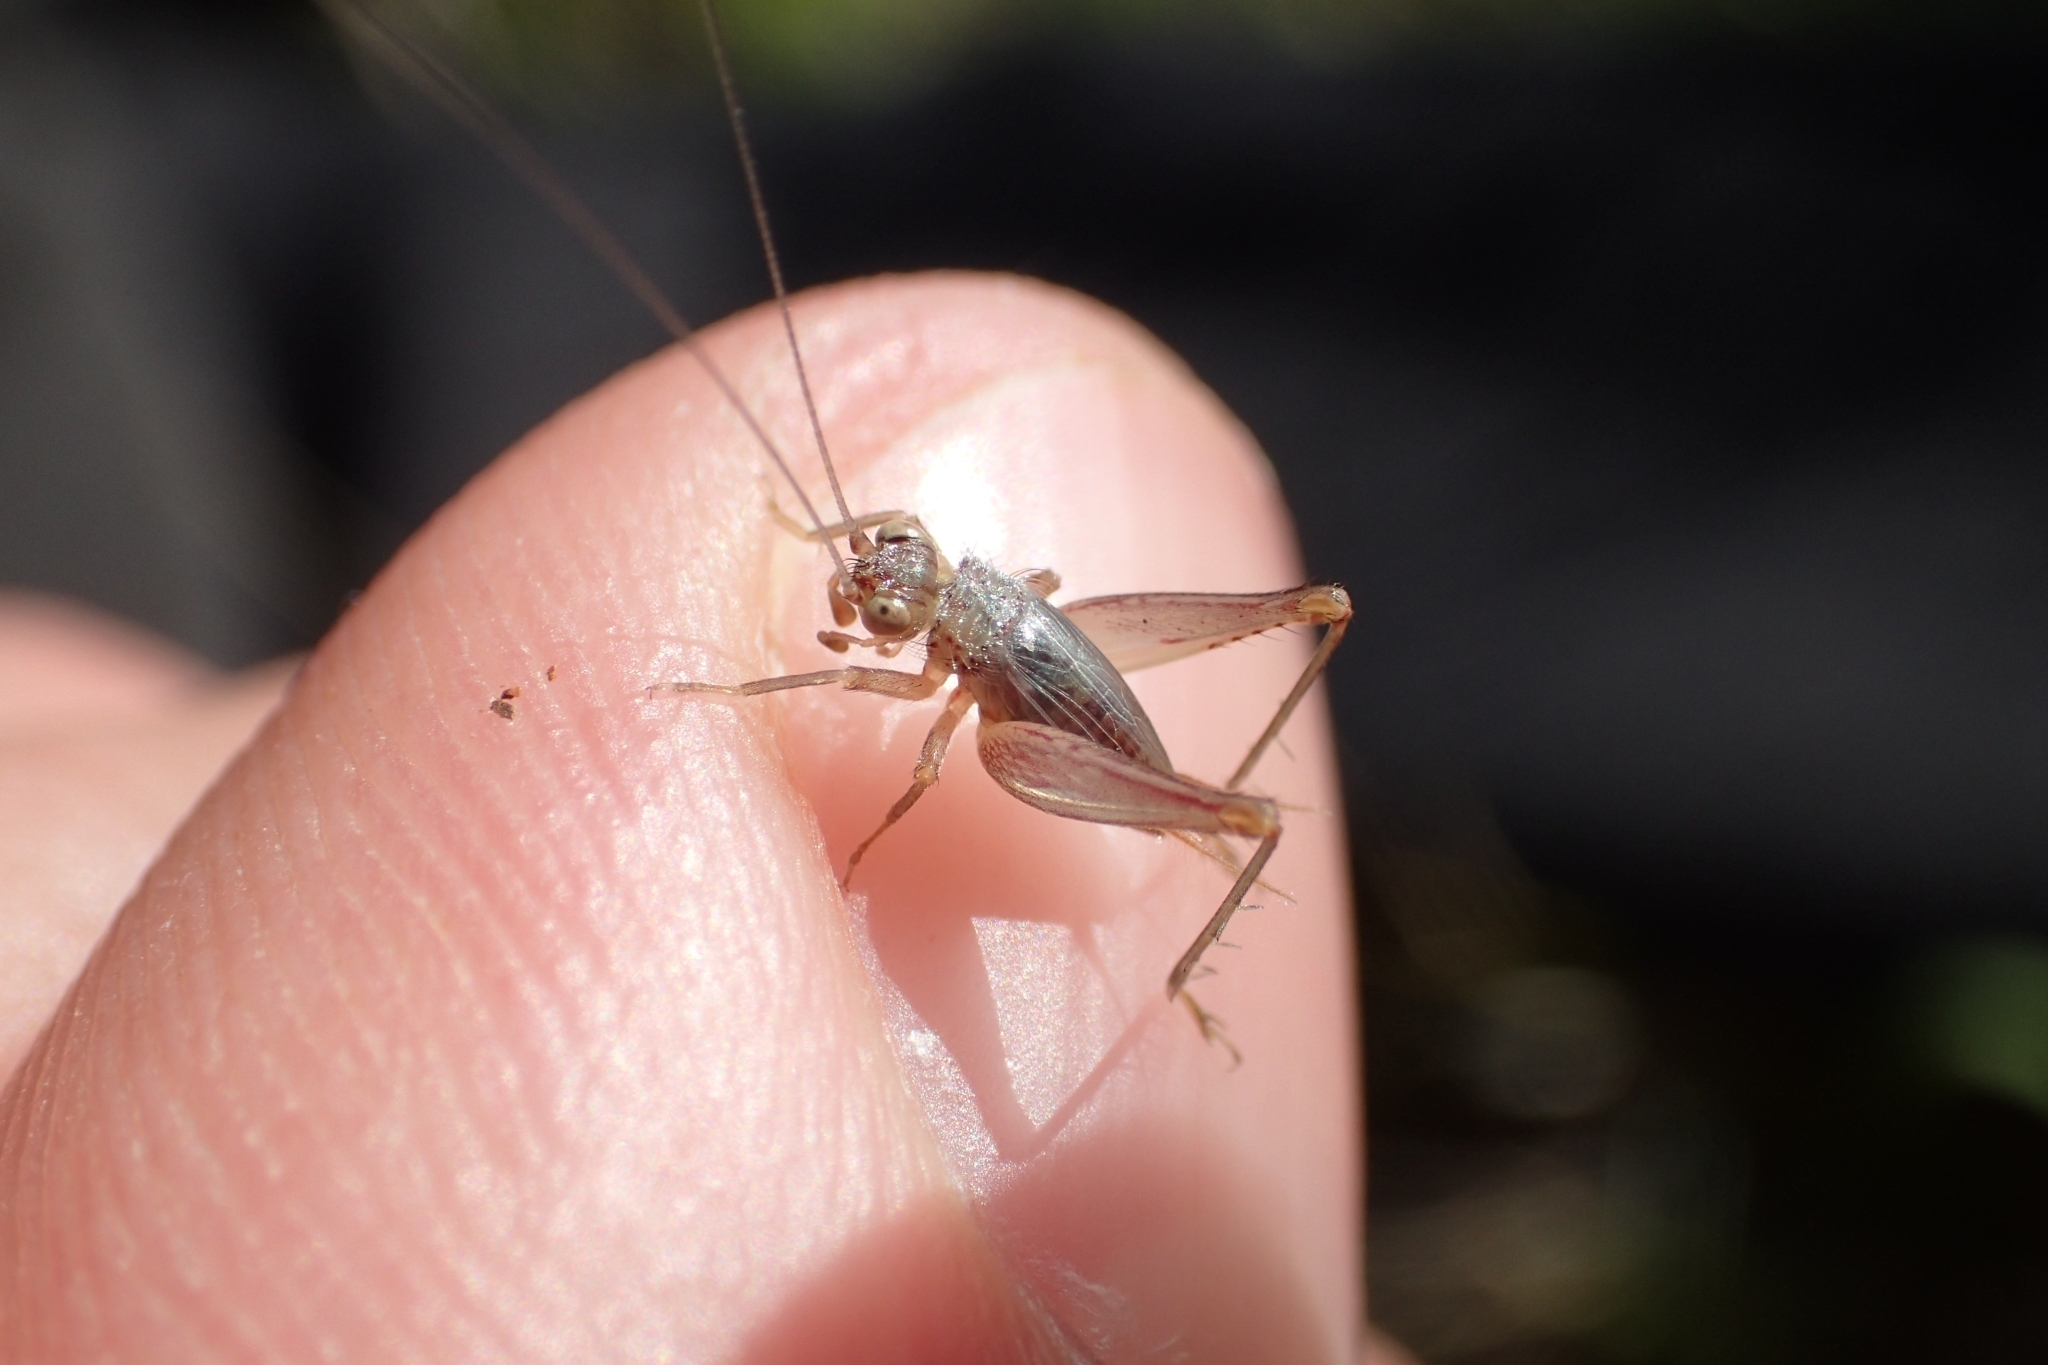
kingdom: Animalia
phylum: Arthropoda
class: Insecta
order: Orthoptera
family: Trigonidiidae
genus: Metioche
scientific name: Metioche maorica
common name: New zealand trig
